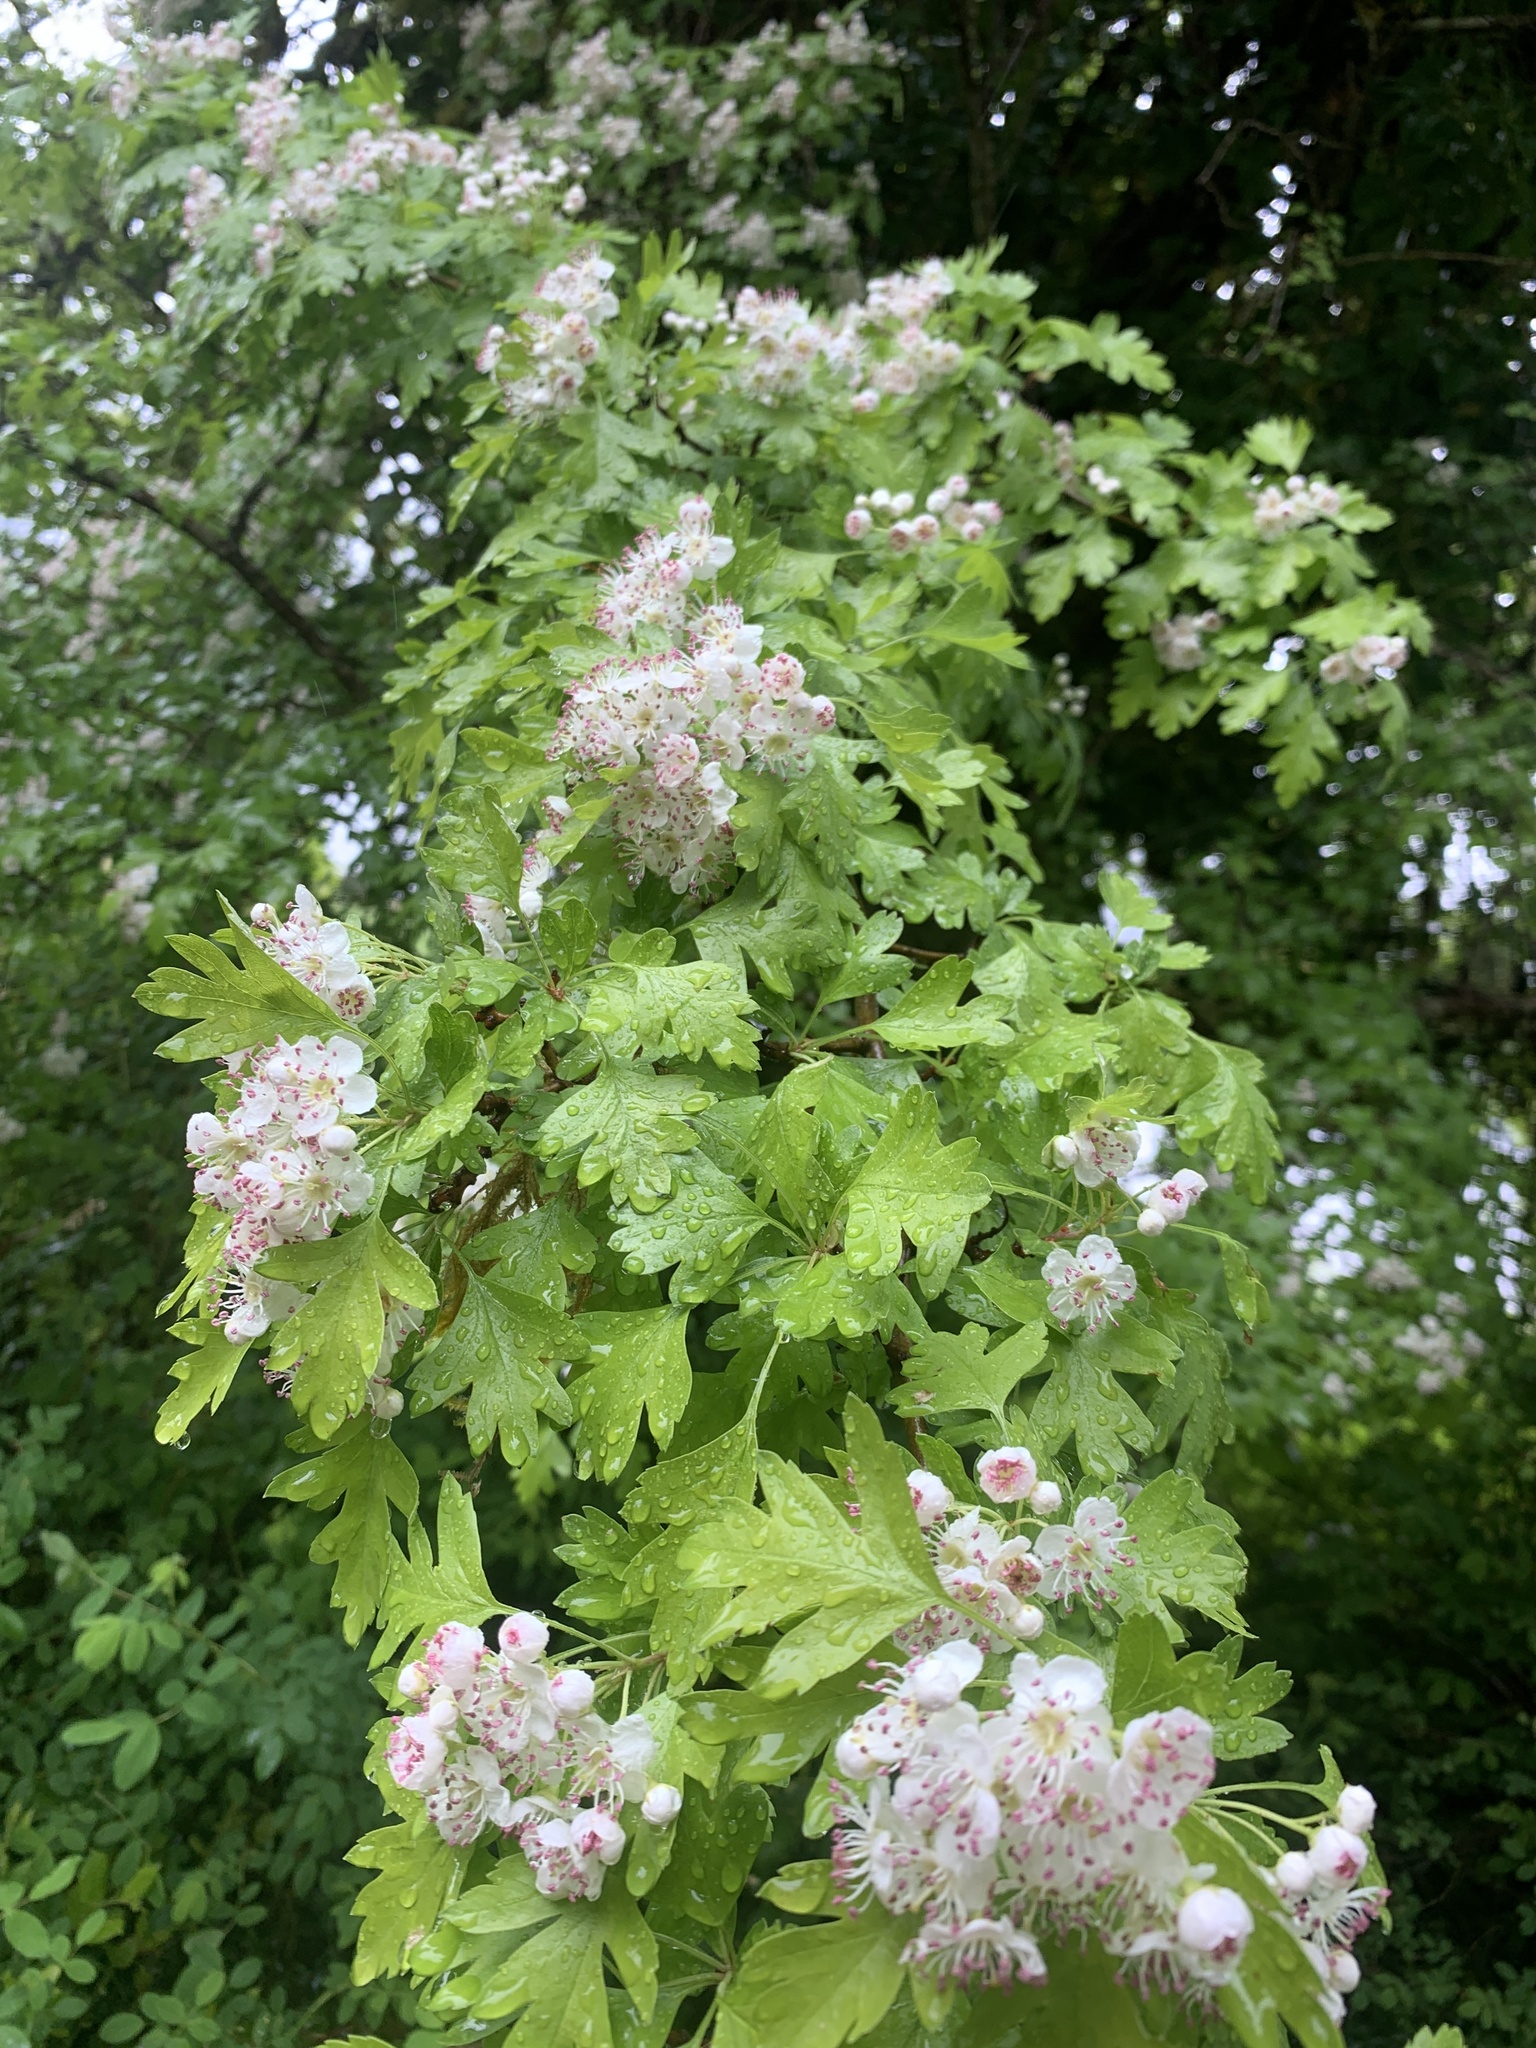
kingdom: Plantae
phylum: Tracheophyta
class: Magnoliopsida
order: Rosales
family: Rosaceae
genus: Crataegus
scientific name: Crataegus monogyna
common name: Hawthorn
